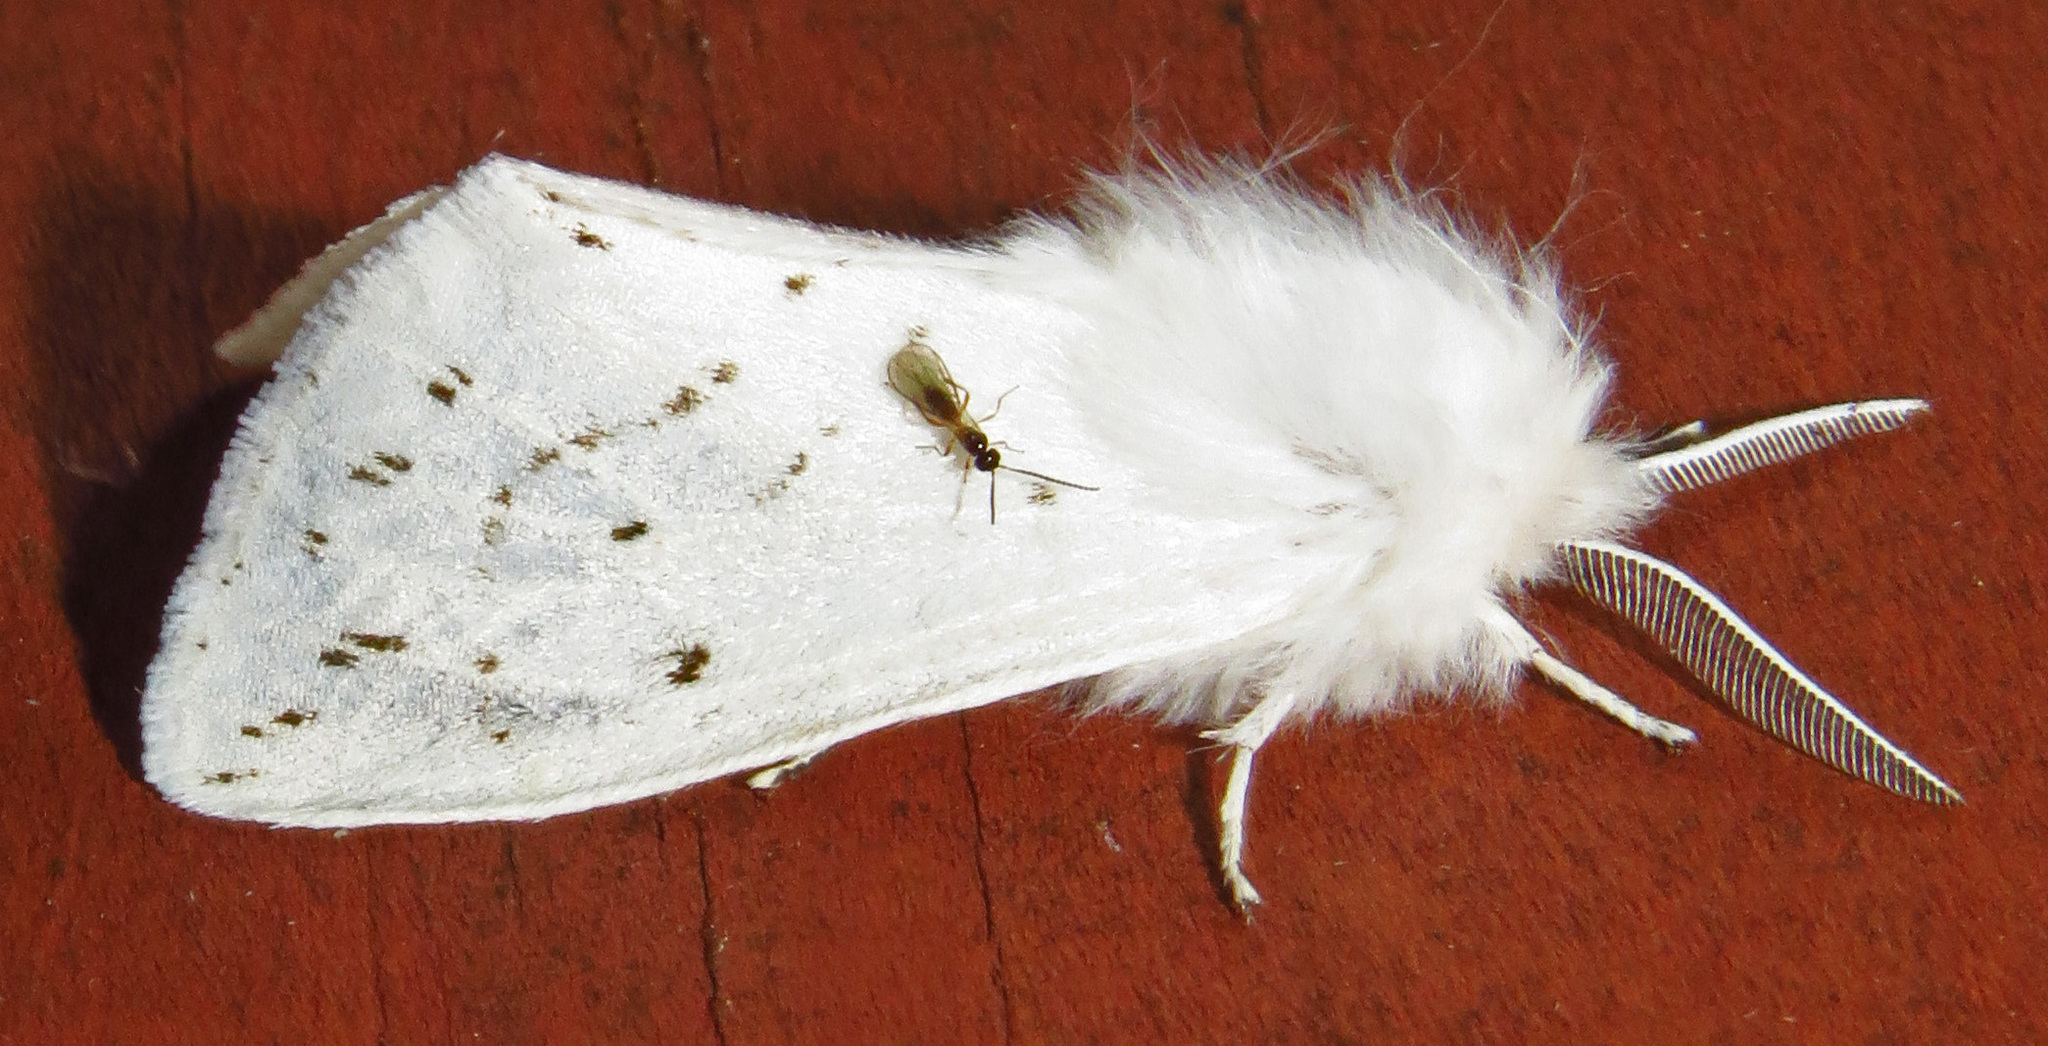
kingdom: Animalia
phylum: Arthropoda
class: Insecta
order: Lepidoptera
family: Erebidae
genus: Spilosoma
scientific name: Spilosoma congrua
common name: Agreeable tiger moth
